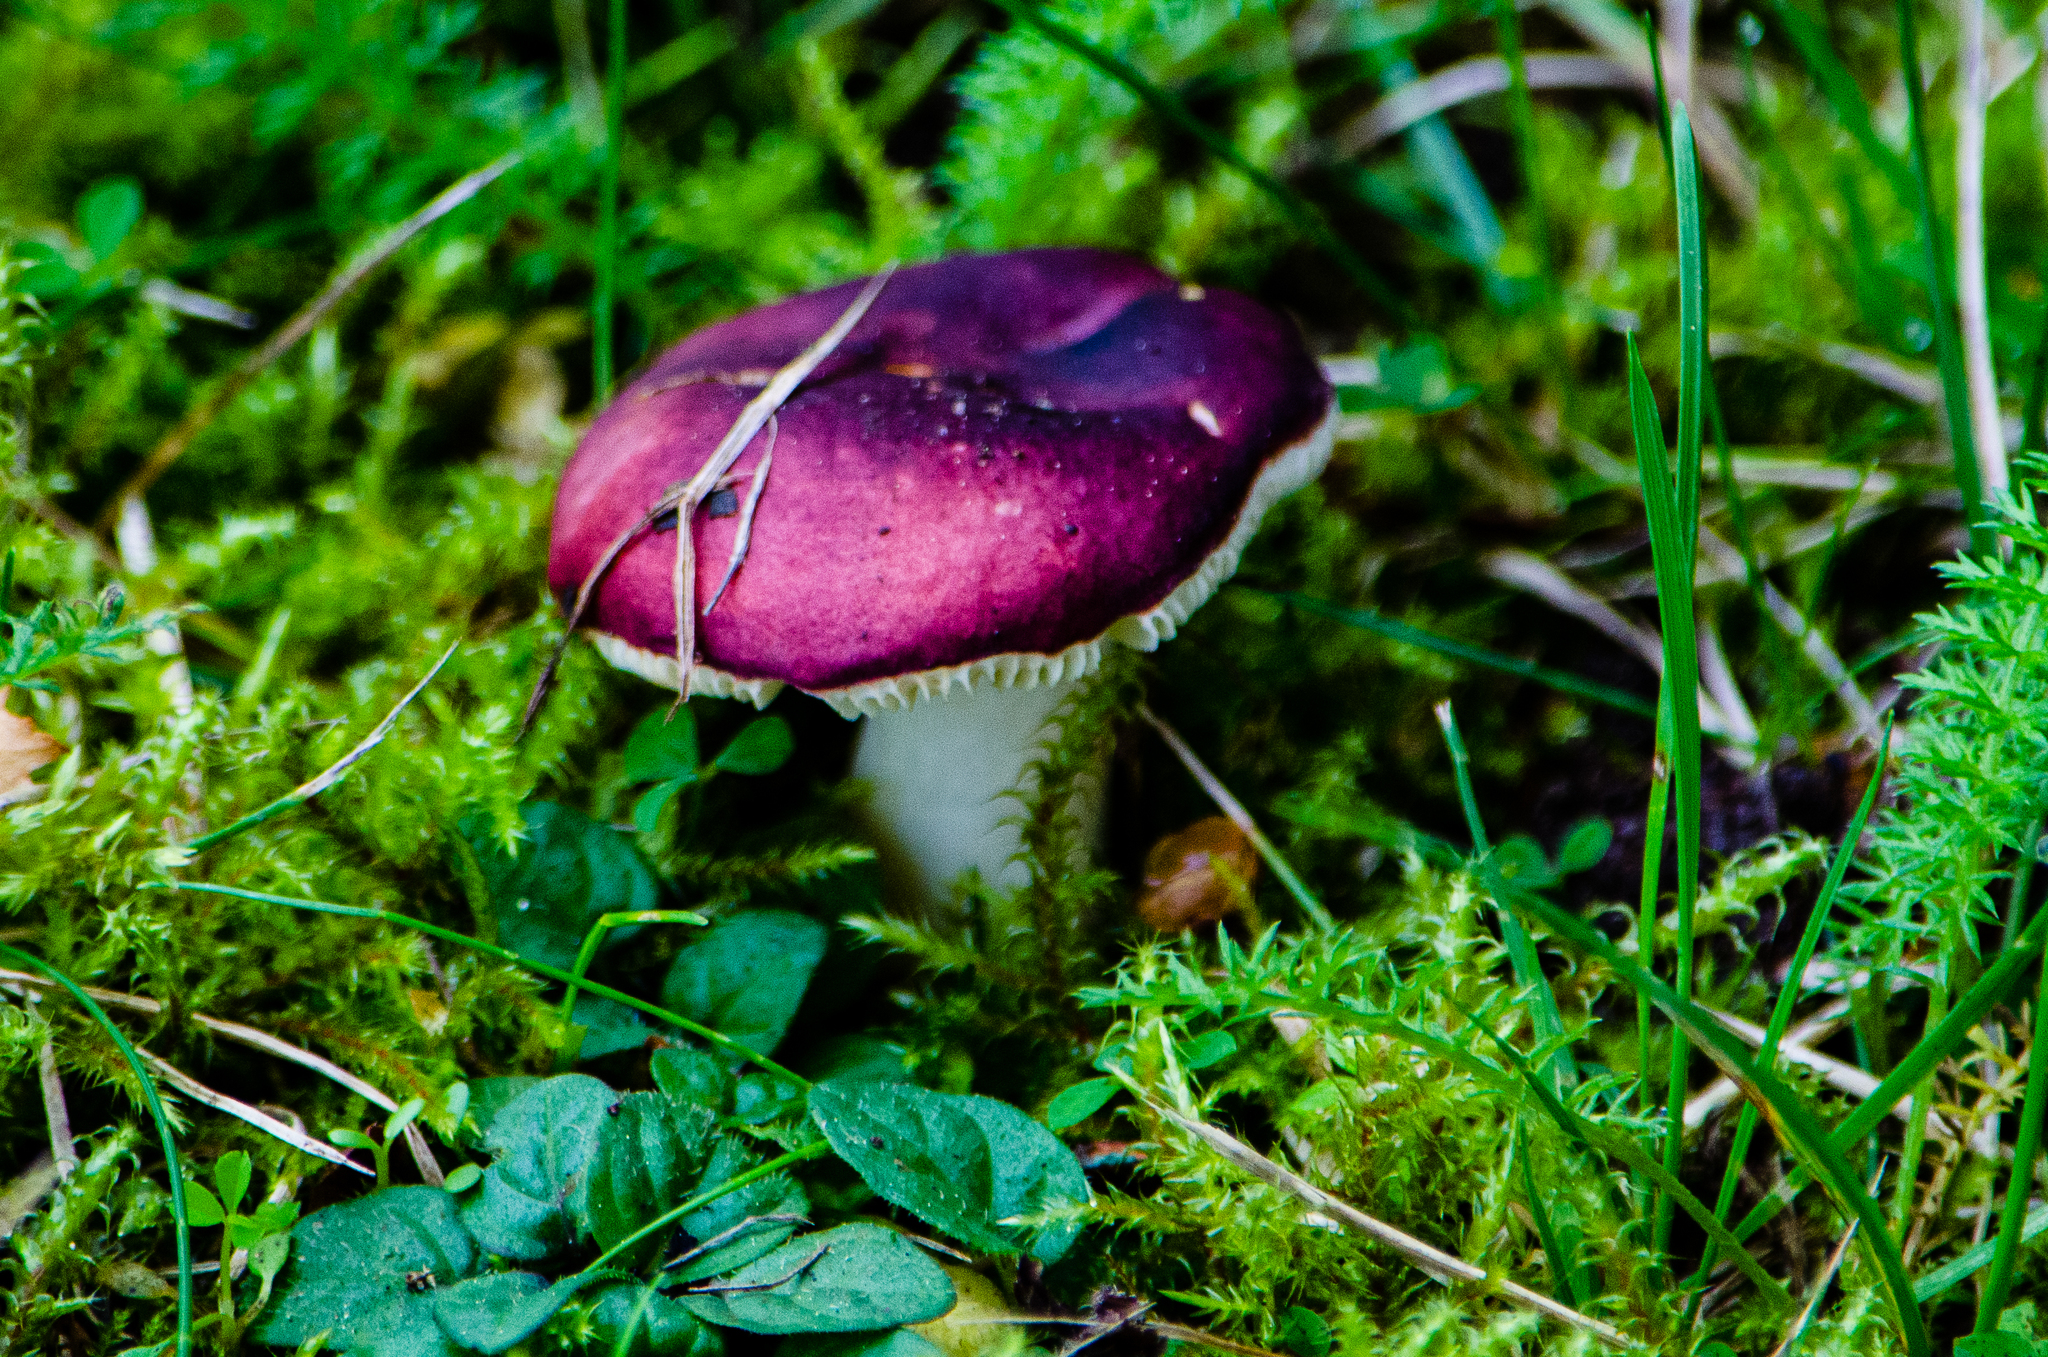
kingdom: Fungi
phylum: Basidiomycota
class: Agaricomycetes
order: Russulales
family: Russulaceae
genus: Russula
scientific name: Russula atropurpurea
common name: Blackish-purple russula
